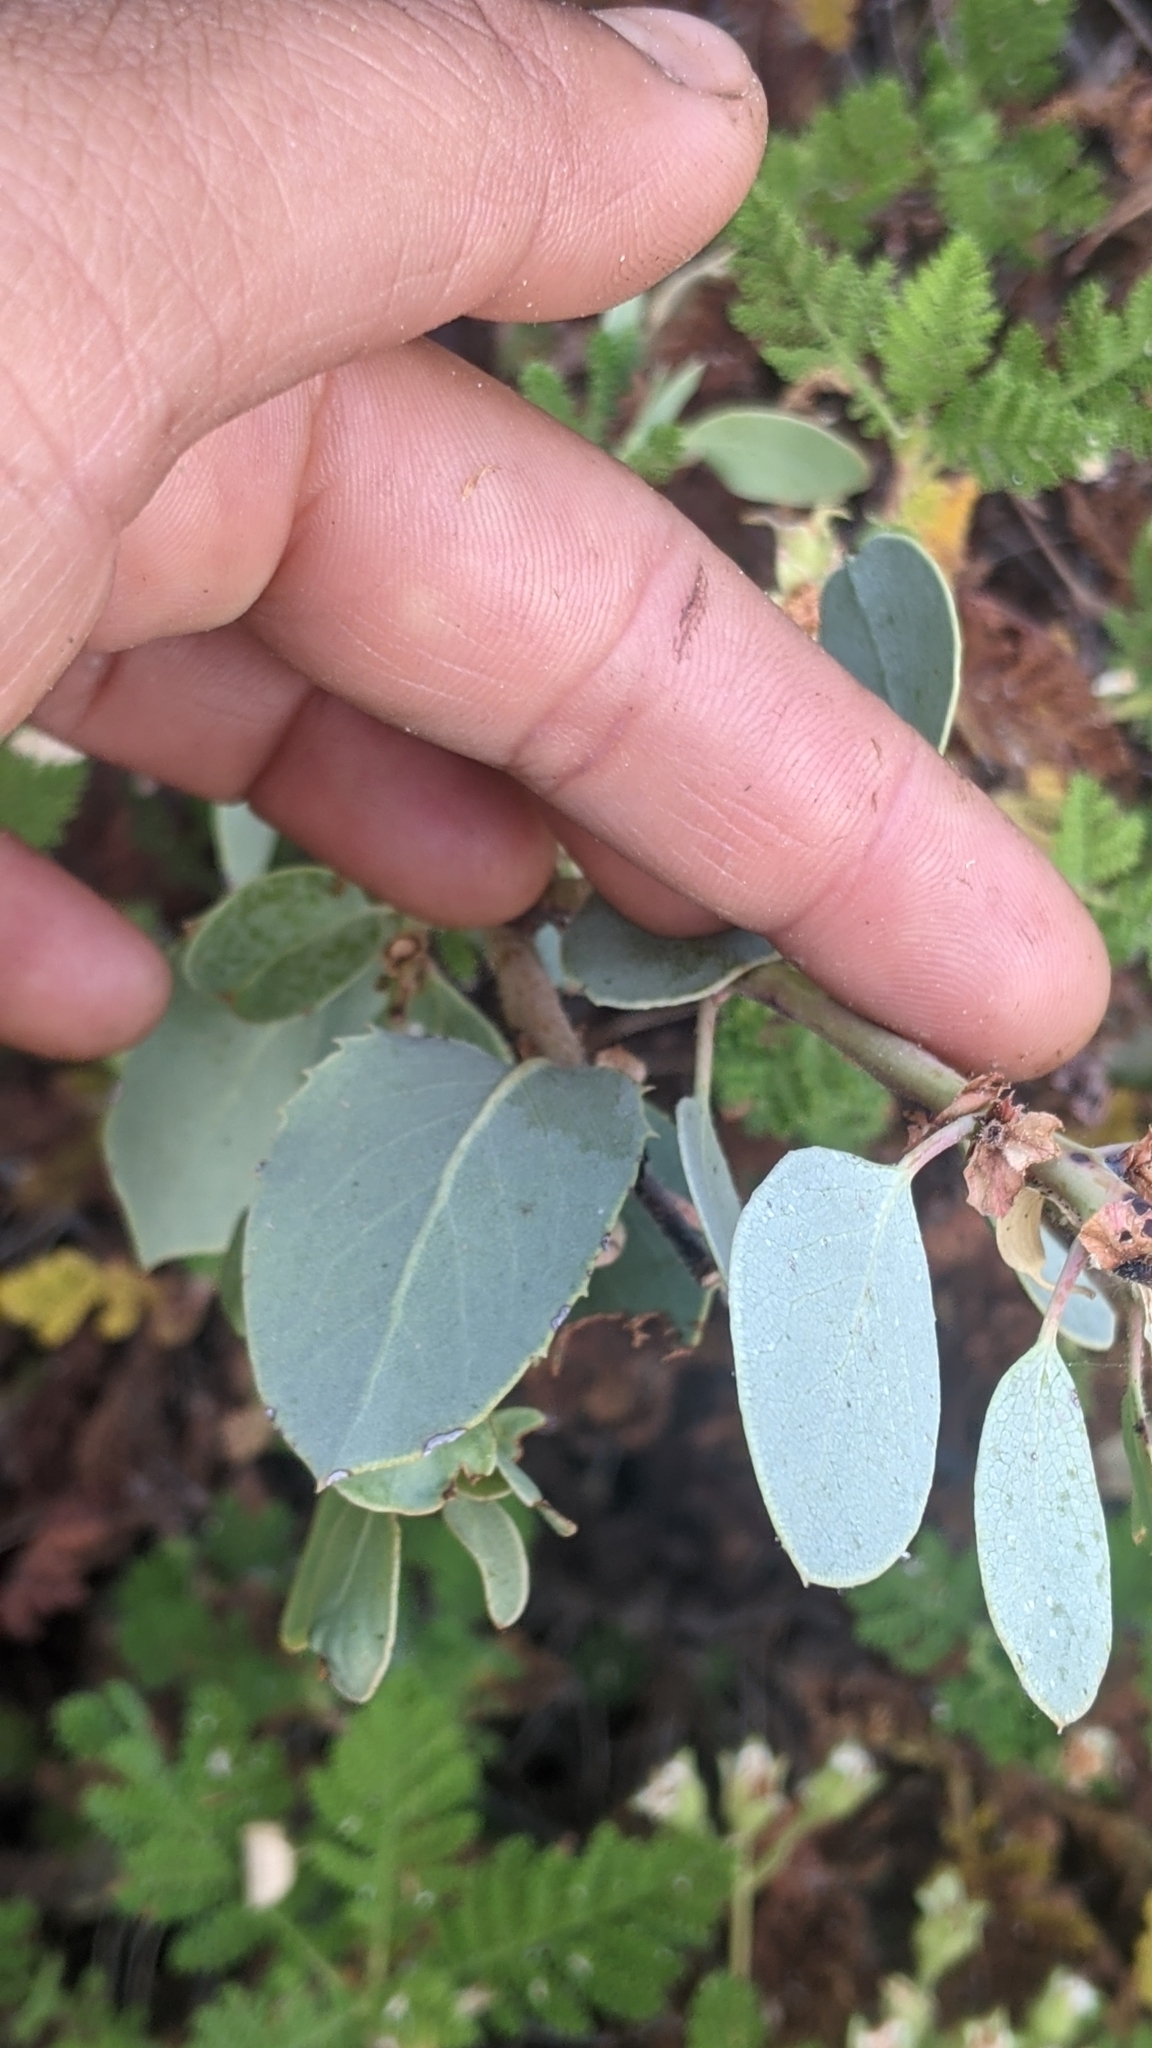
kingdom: Plantae
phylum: Tracheophyta
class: Magnoliopsida
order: Ericales
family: Ericaceae
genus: Arctostaphylos
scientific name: Arctostaphylos viscida
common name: White-leaf manzanita
